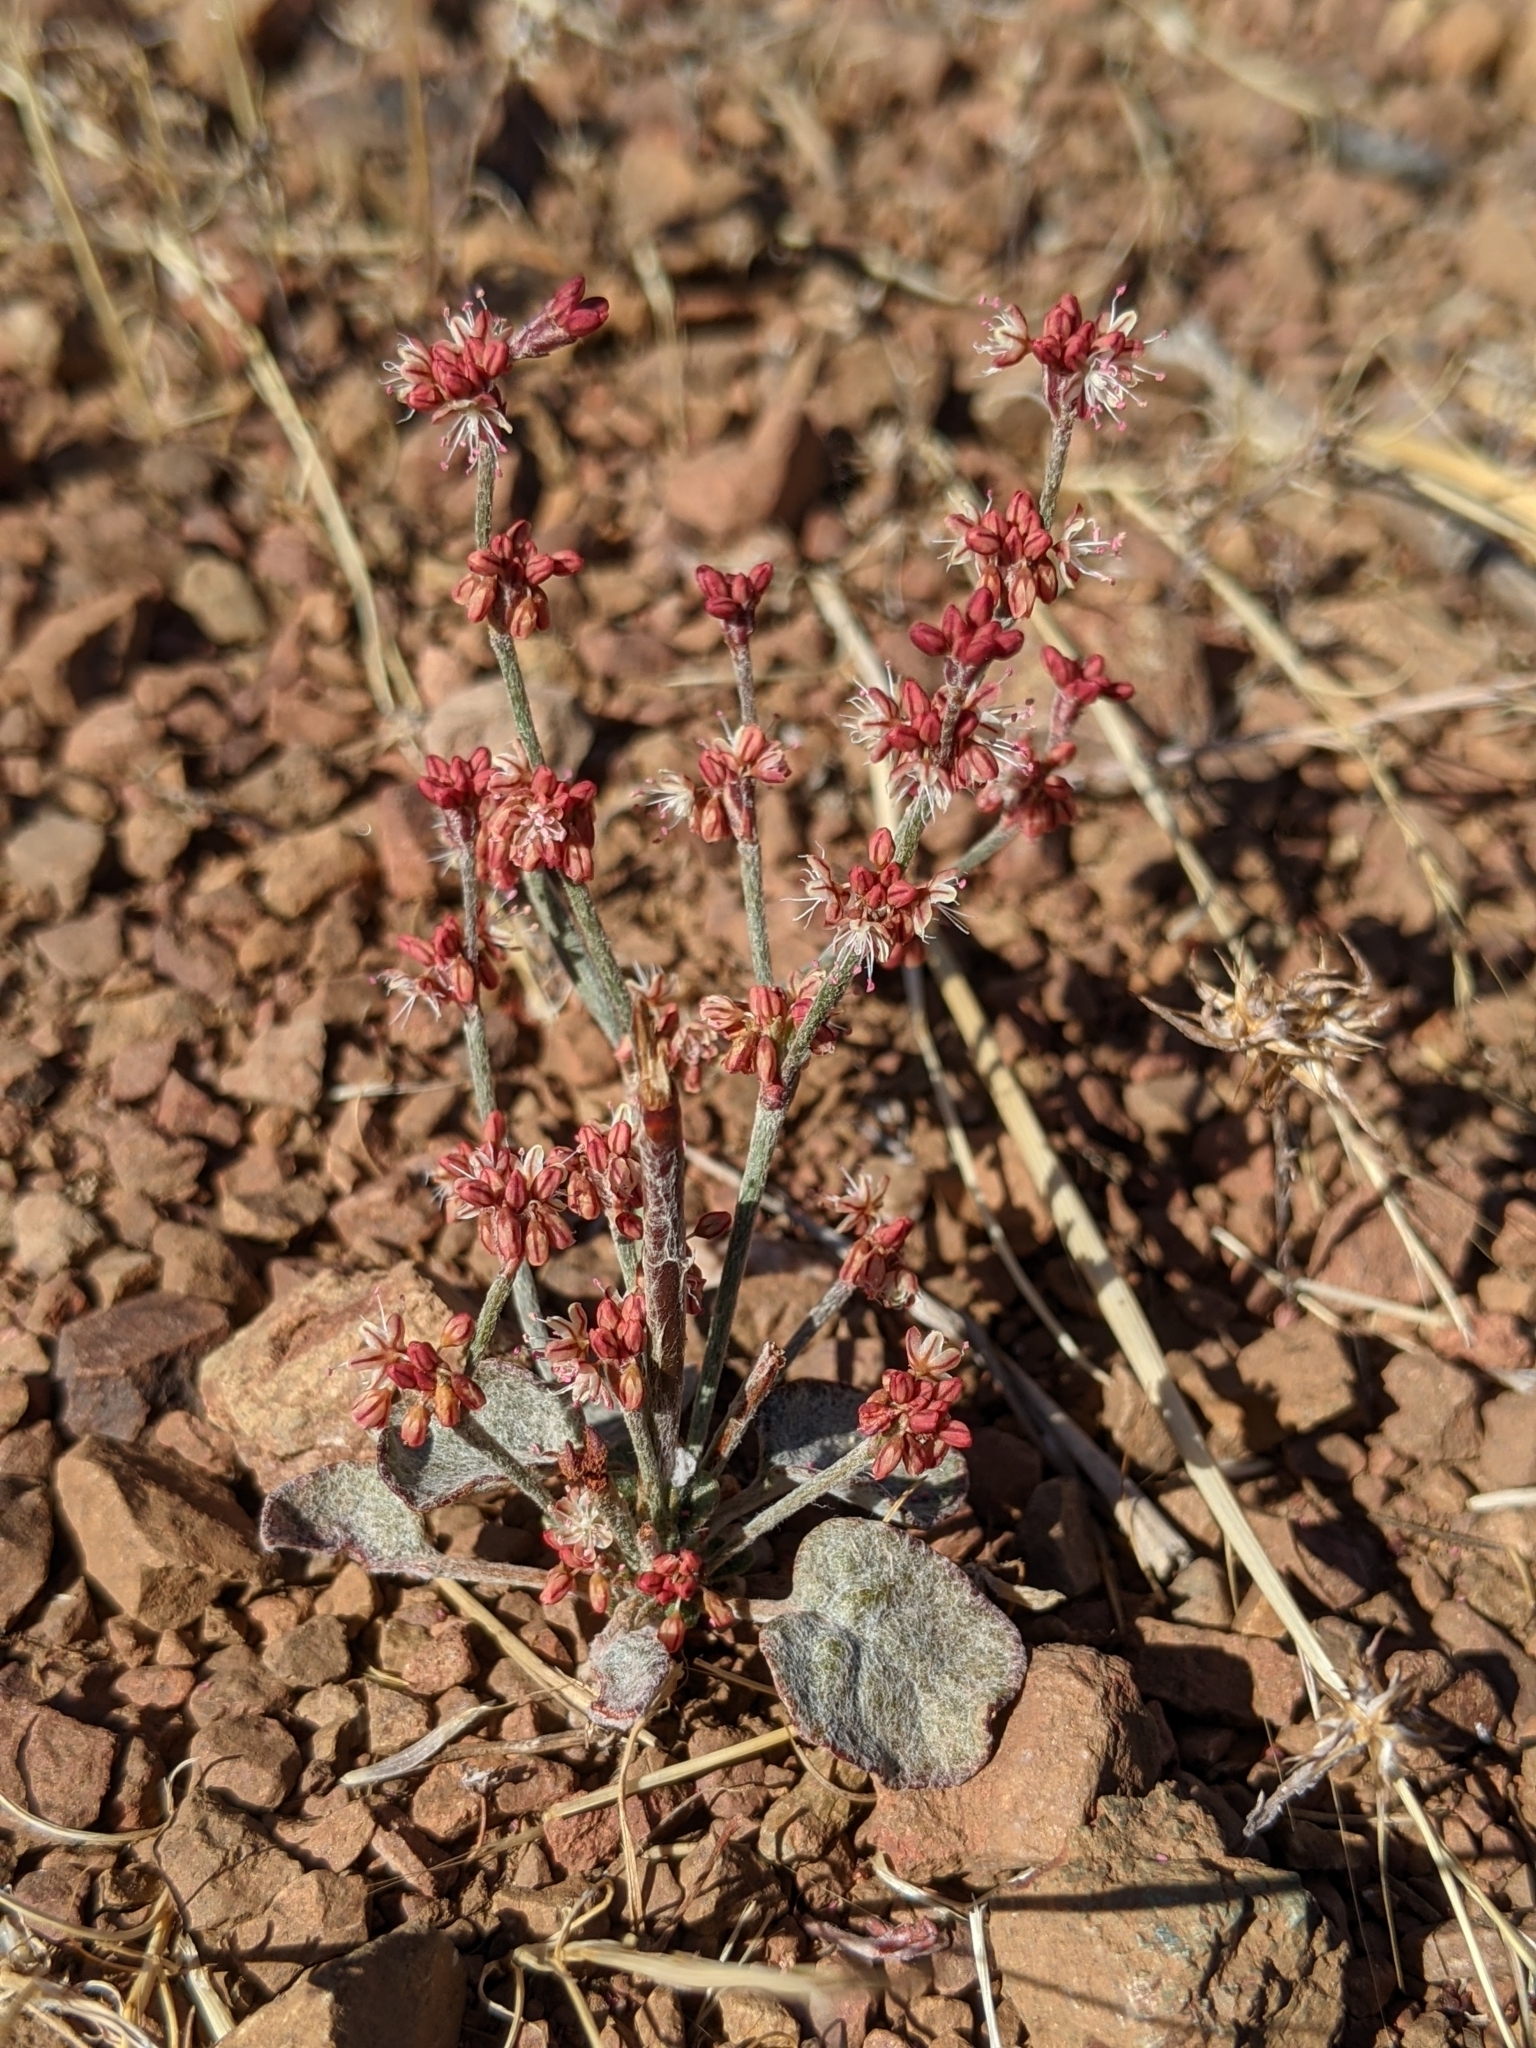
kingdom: Plantae
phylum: Tracheophyta
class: Magnoliopsida
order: Caryophyllales
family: Polygonaceae
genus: Eriogonum
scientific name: Eriogonum luteolum
